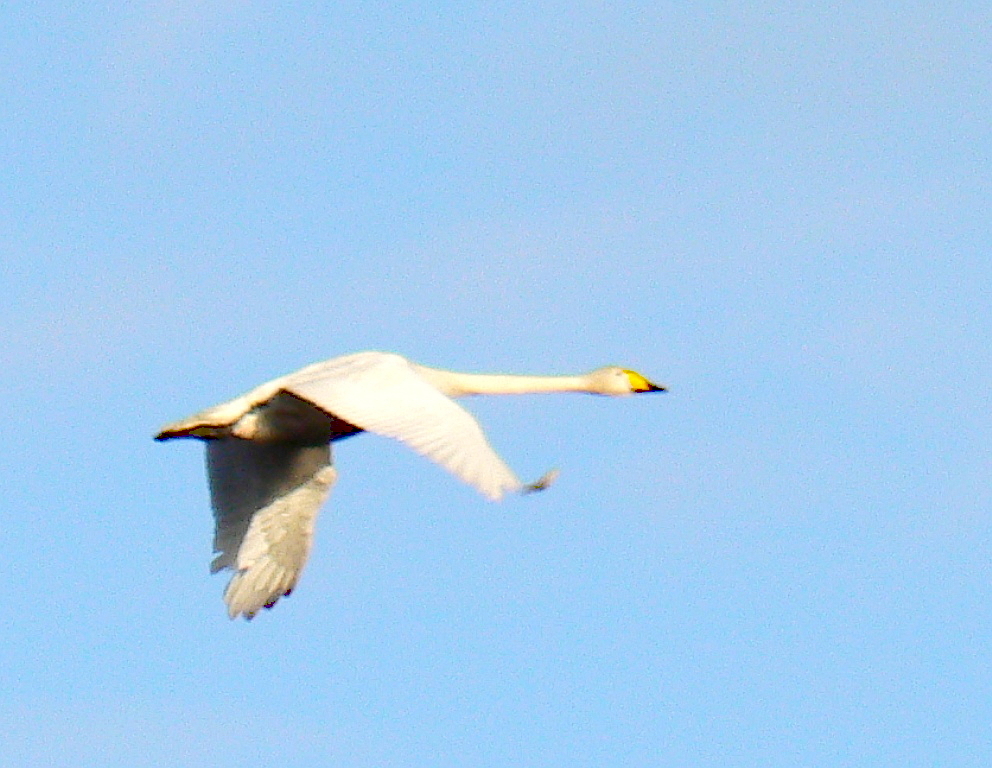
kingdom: Animalia
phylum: Chordata
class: Aves
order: Anseriformes
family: Anatidae
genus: Cygnus
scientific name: Cygnus cygnus
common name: Whooper swan
